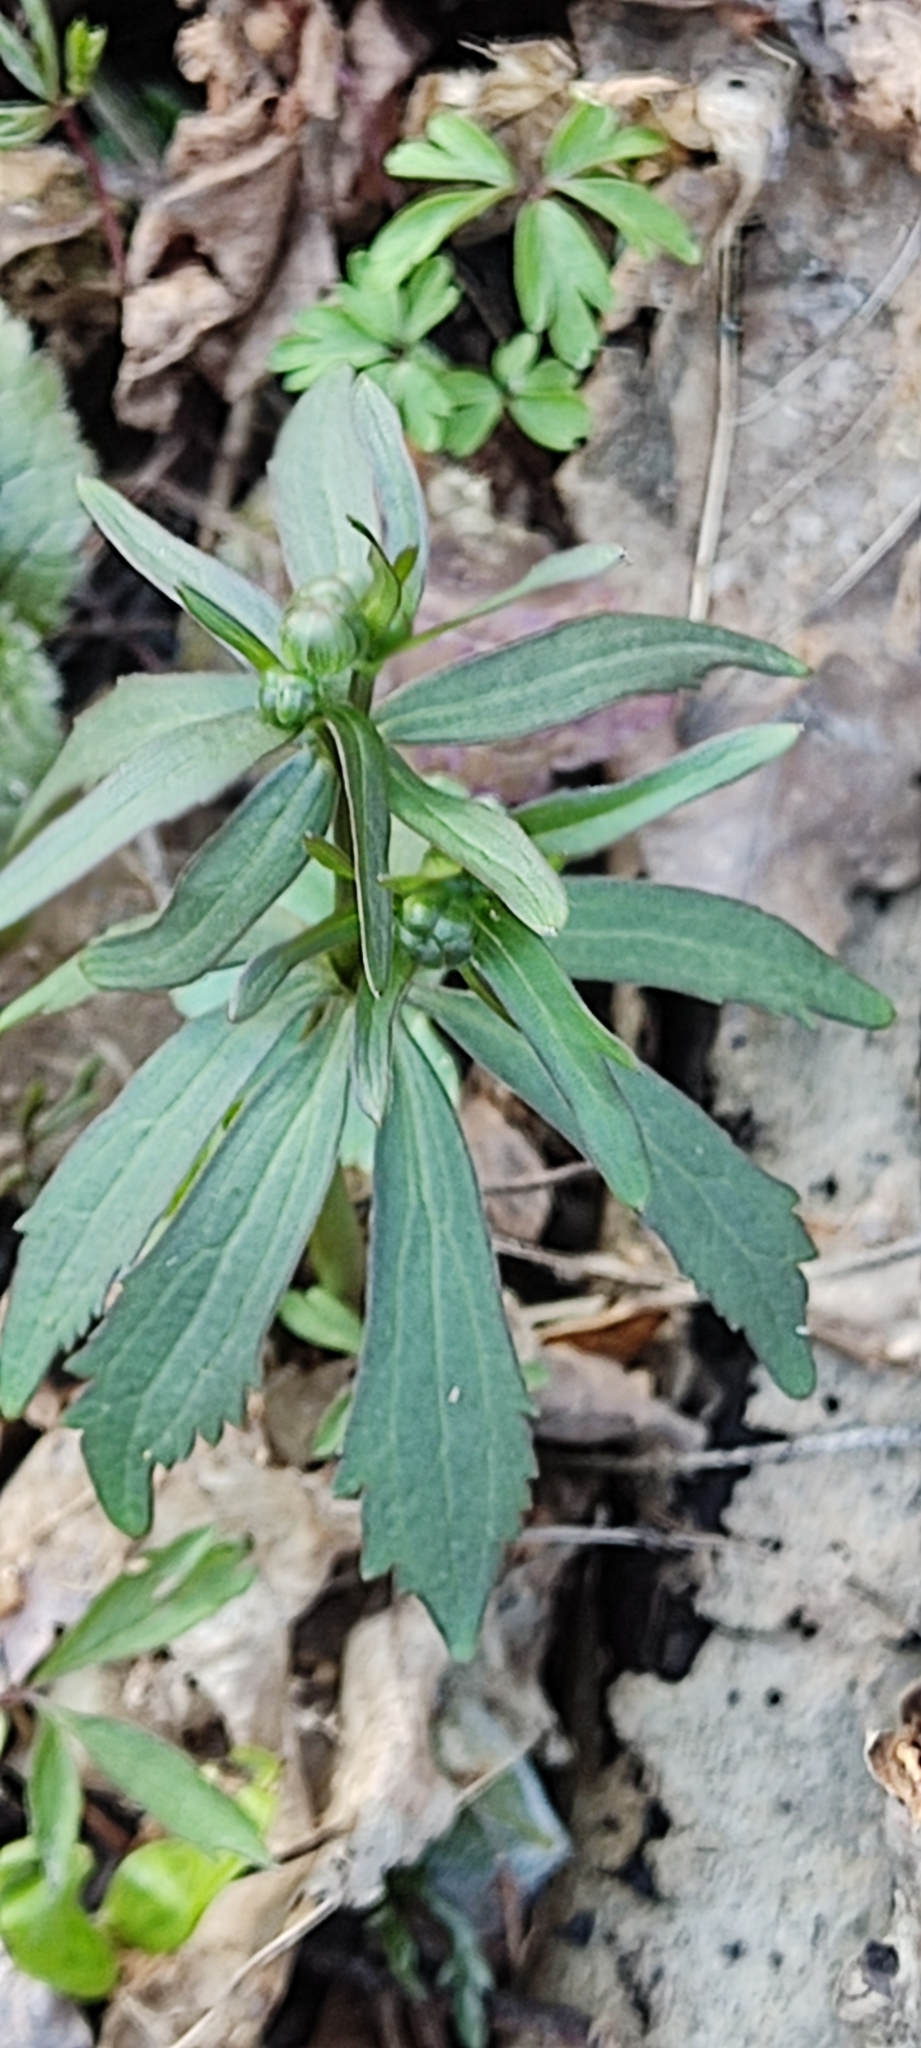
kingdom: Plantae
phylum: Tracheophyta
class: Magnoliopsida
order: Ranunculales
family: Ranunculaceae
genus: Ranunculus
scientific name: Ranunculus cassubicus
